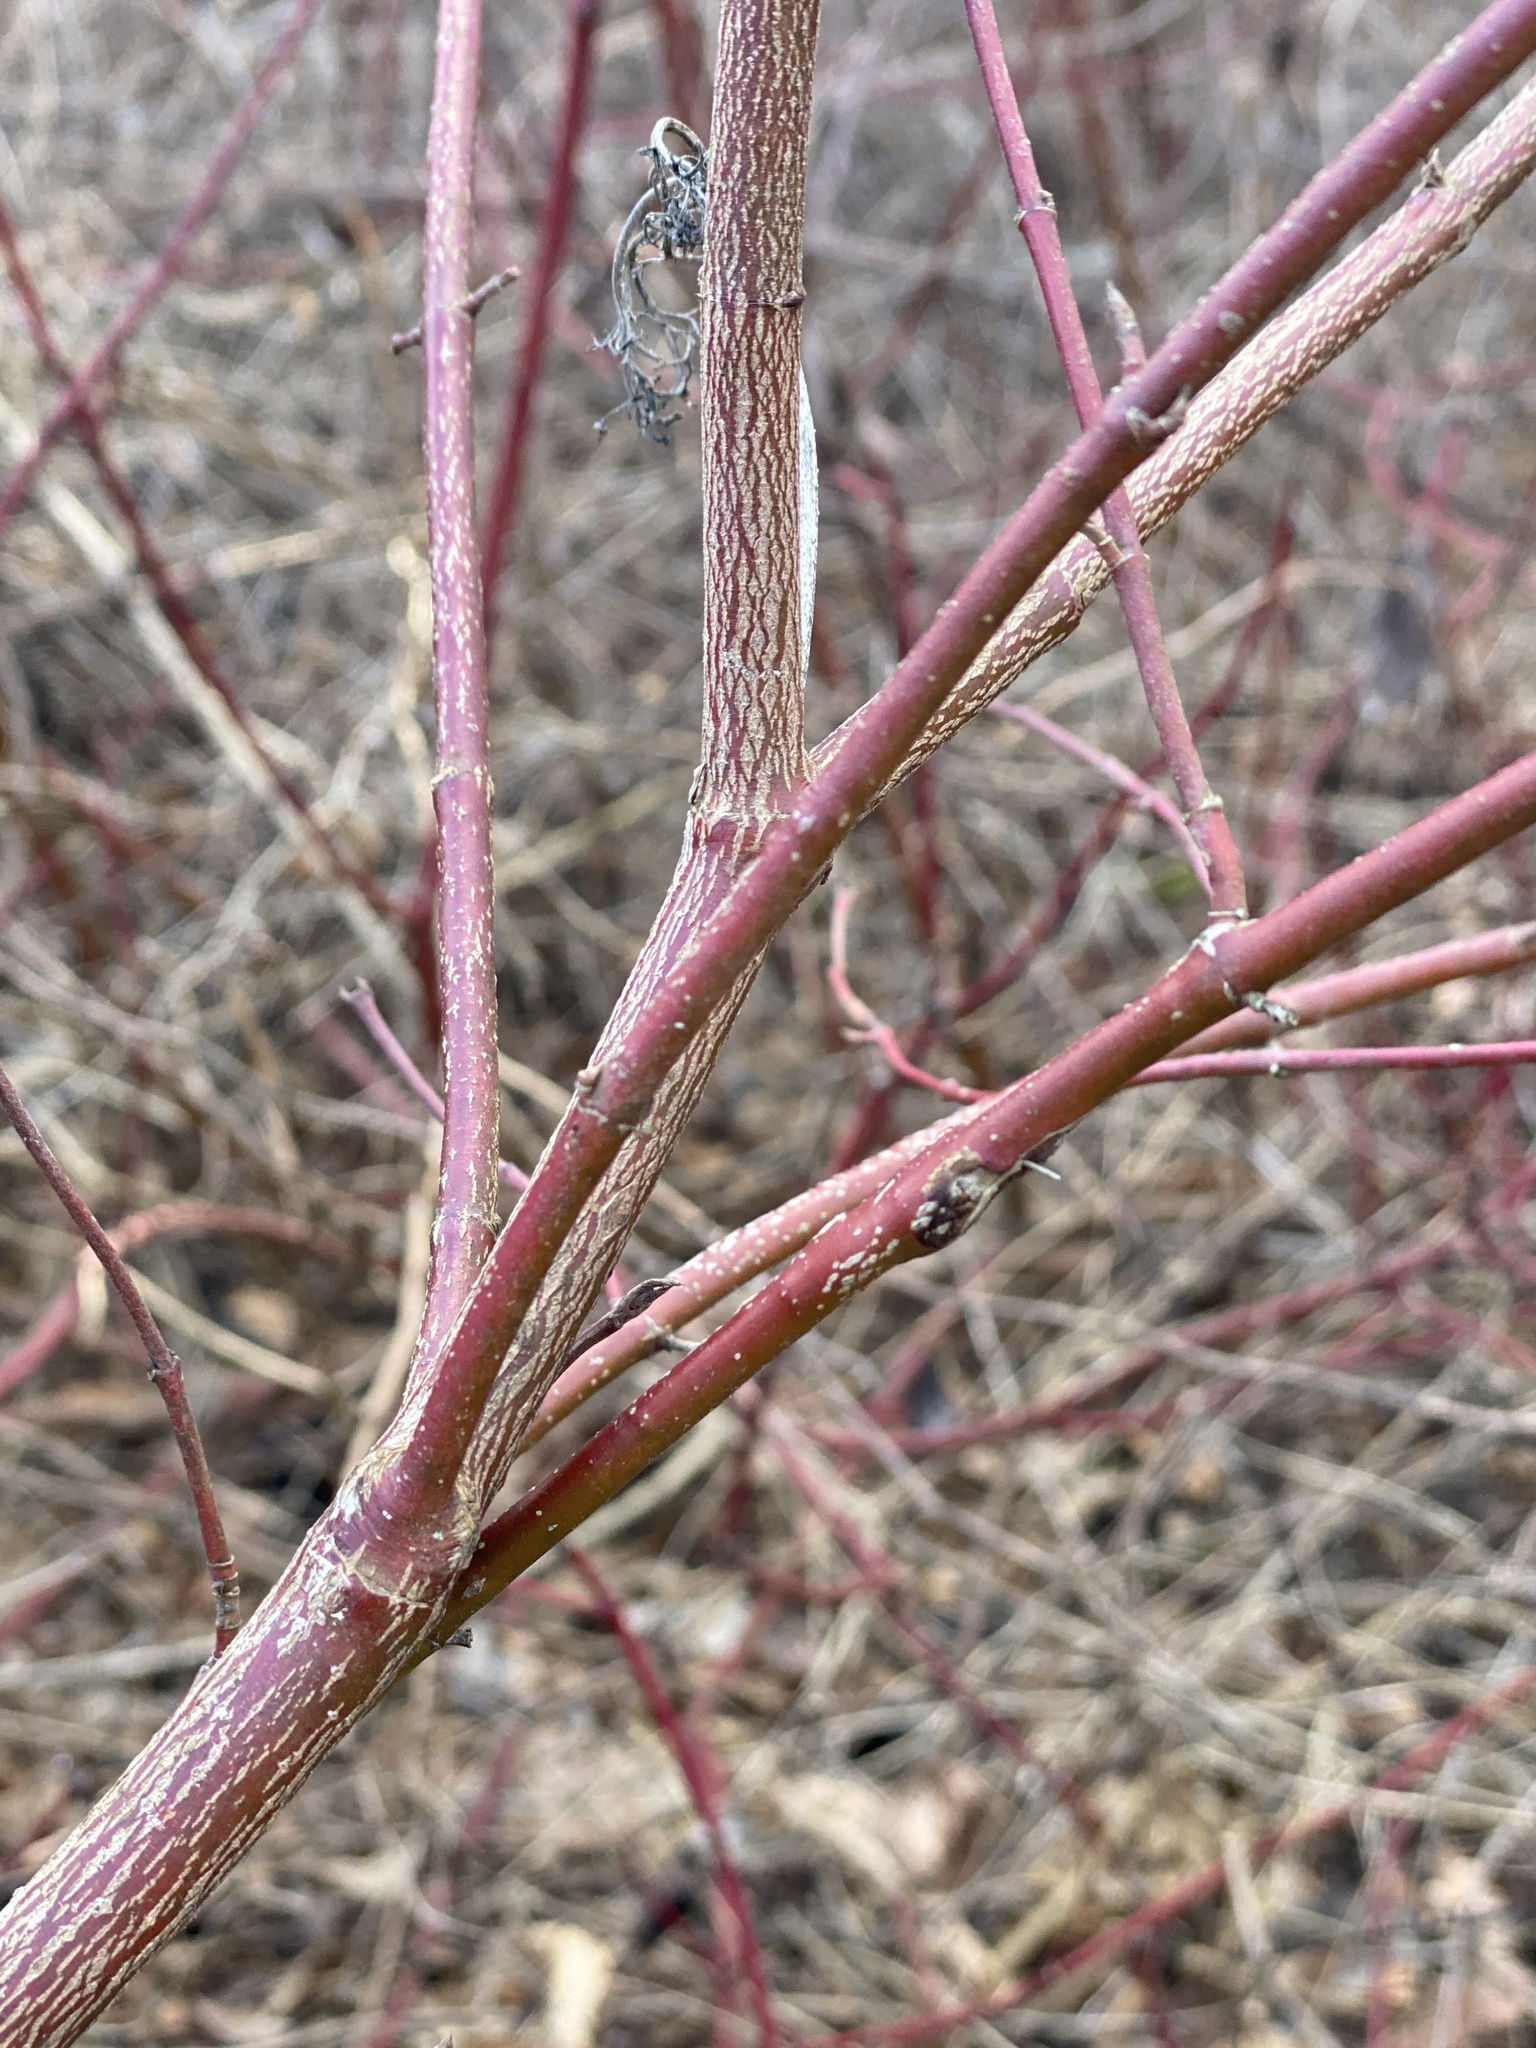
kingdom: Plantae
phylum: Tracheophyta
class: Magnoliopsida
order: Cornales
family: Cornaceae
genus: Cornus
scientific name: Cornus amomum
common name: Silky dogwood
